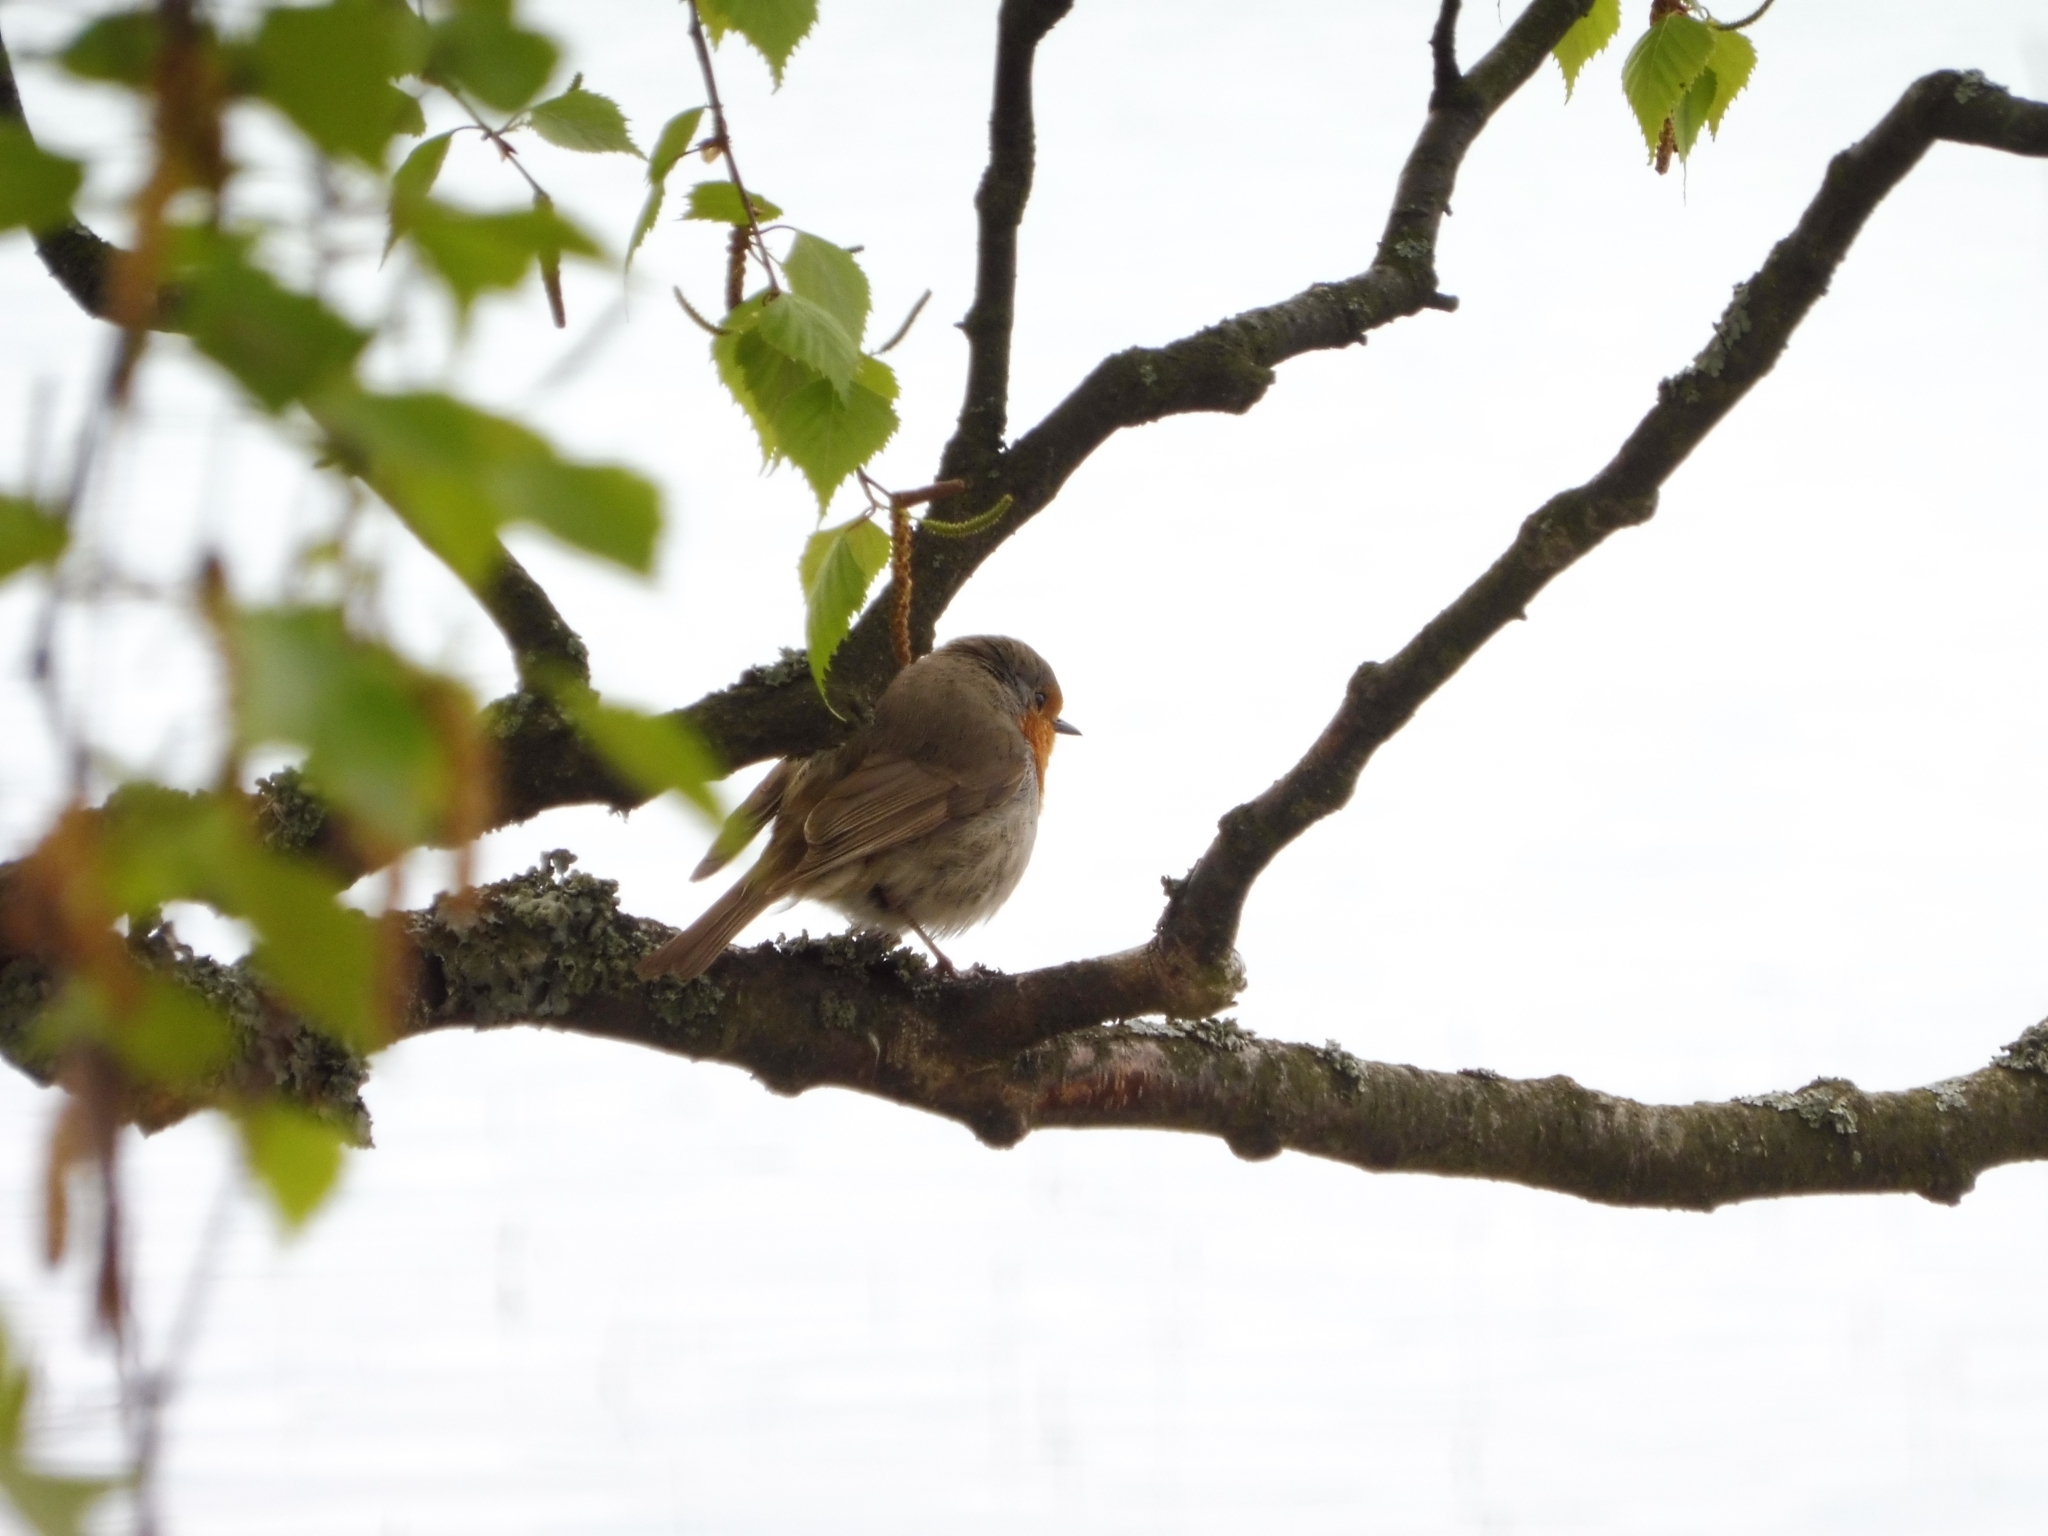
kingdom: Animalia
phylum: Chordata
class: Aves
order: Passeriformes
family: Muscicapidae
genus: Erithacus
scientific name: Erithacus rubecula
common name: European robin
